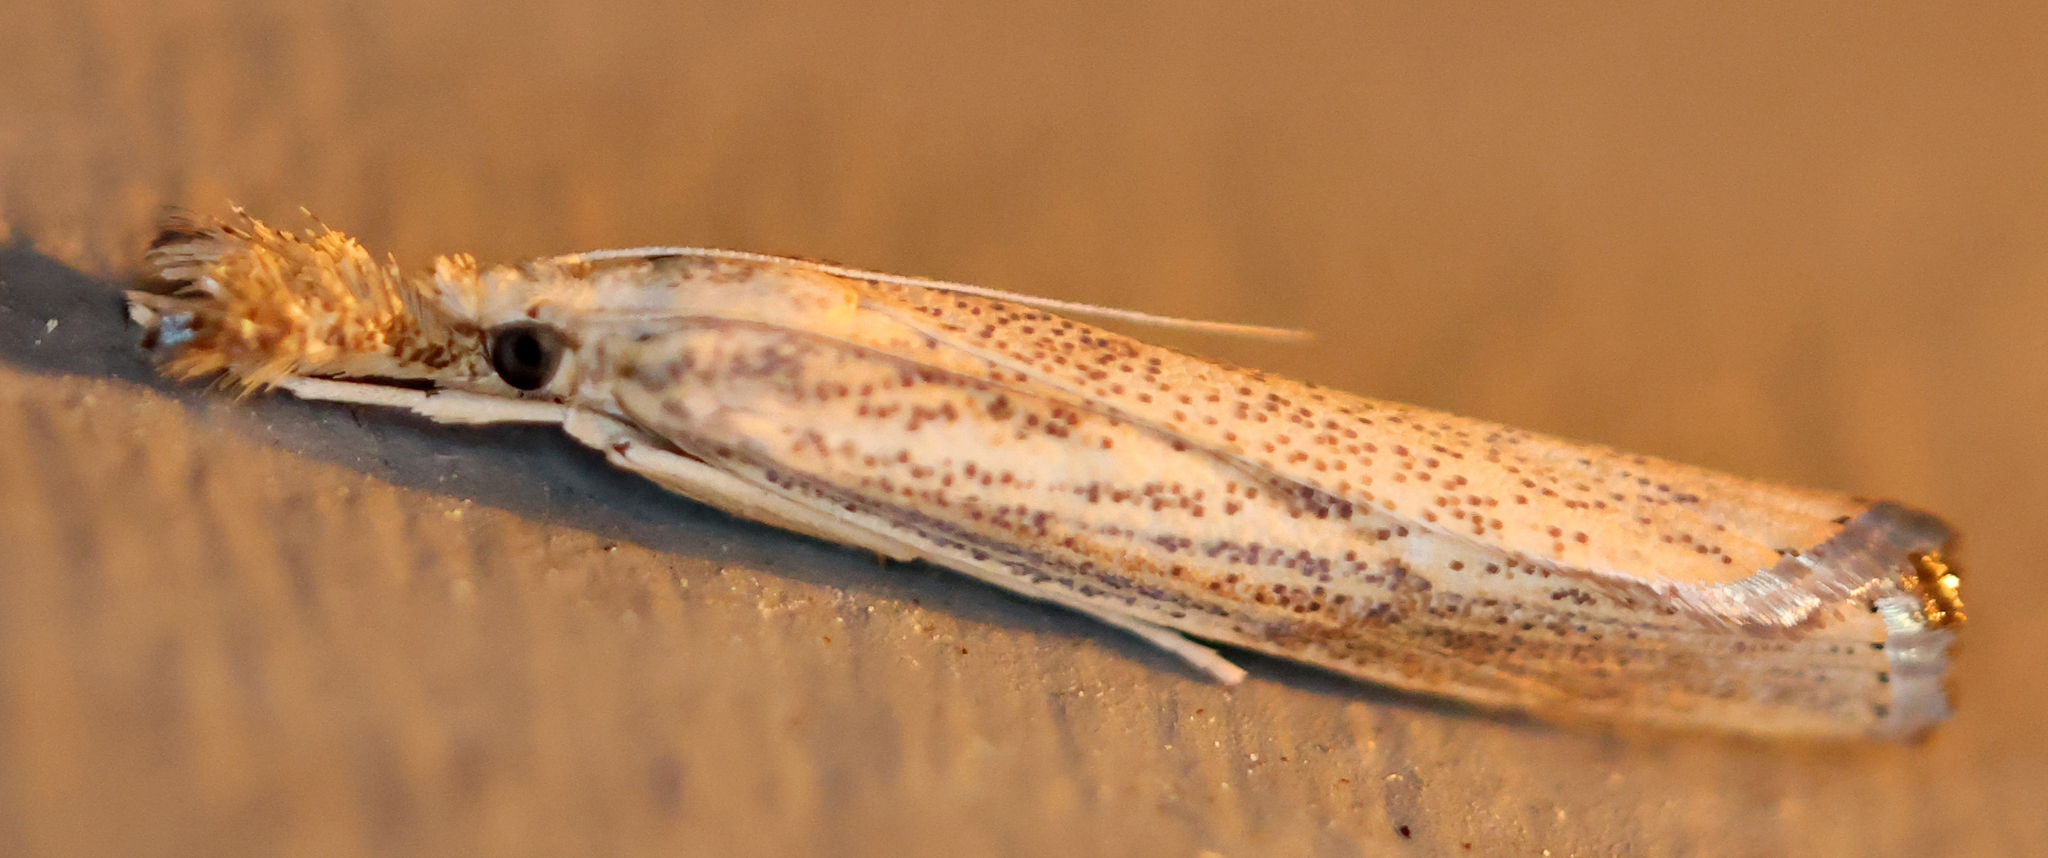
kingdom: Animalia
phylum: Arthropoda
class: Insecta
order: Lepidoptera
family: Crambidae
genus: Agriphila
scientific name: Agriphila vulgivagellus
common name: Vagabond crambus moth
